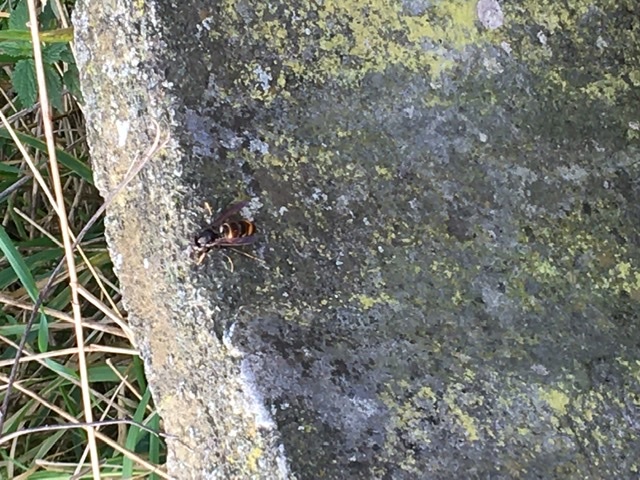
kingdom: Animalia
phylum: Arthropoda
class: Insecta
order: Hymenoptera
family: Vespidae
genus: Vespa
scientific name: Vespa velutina
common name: Asian hornet
